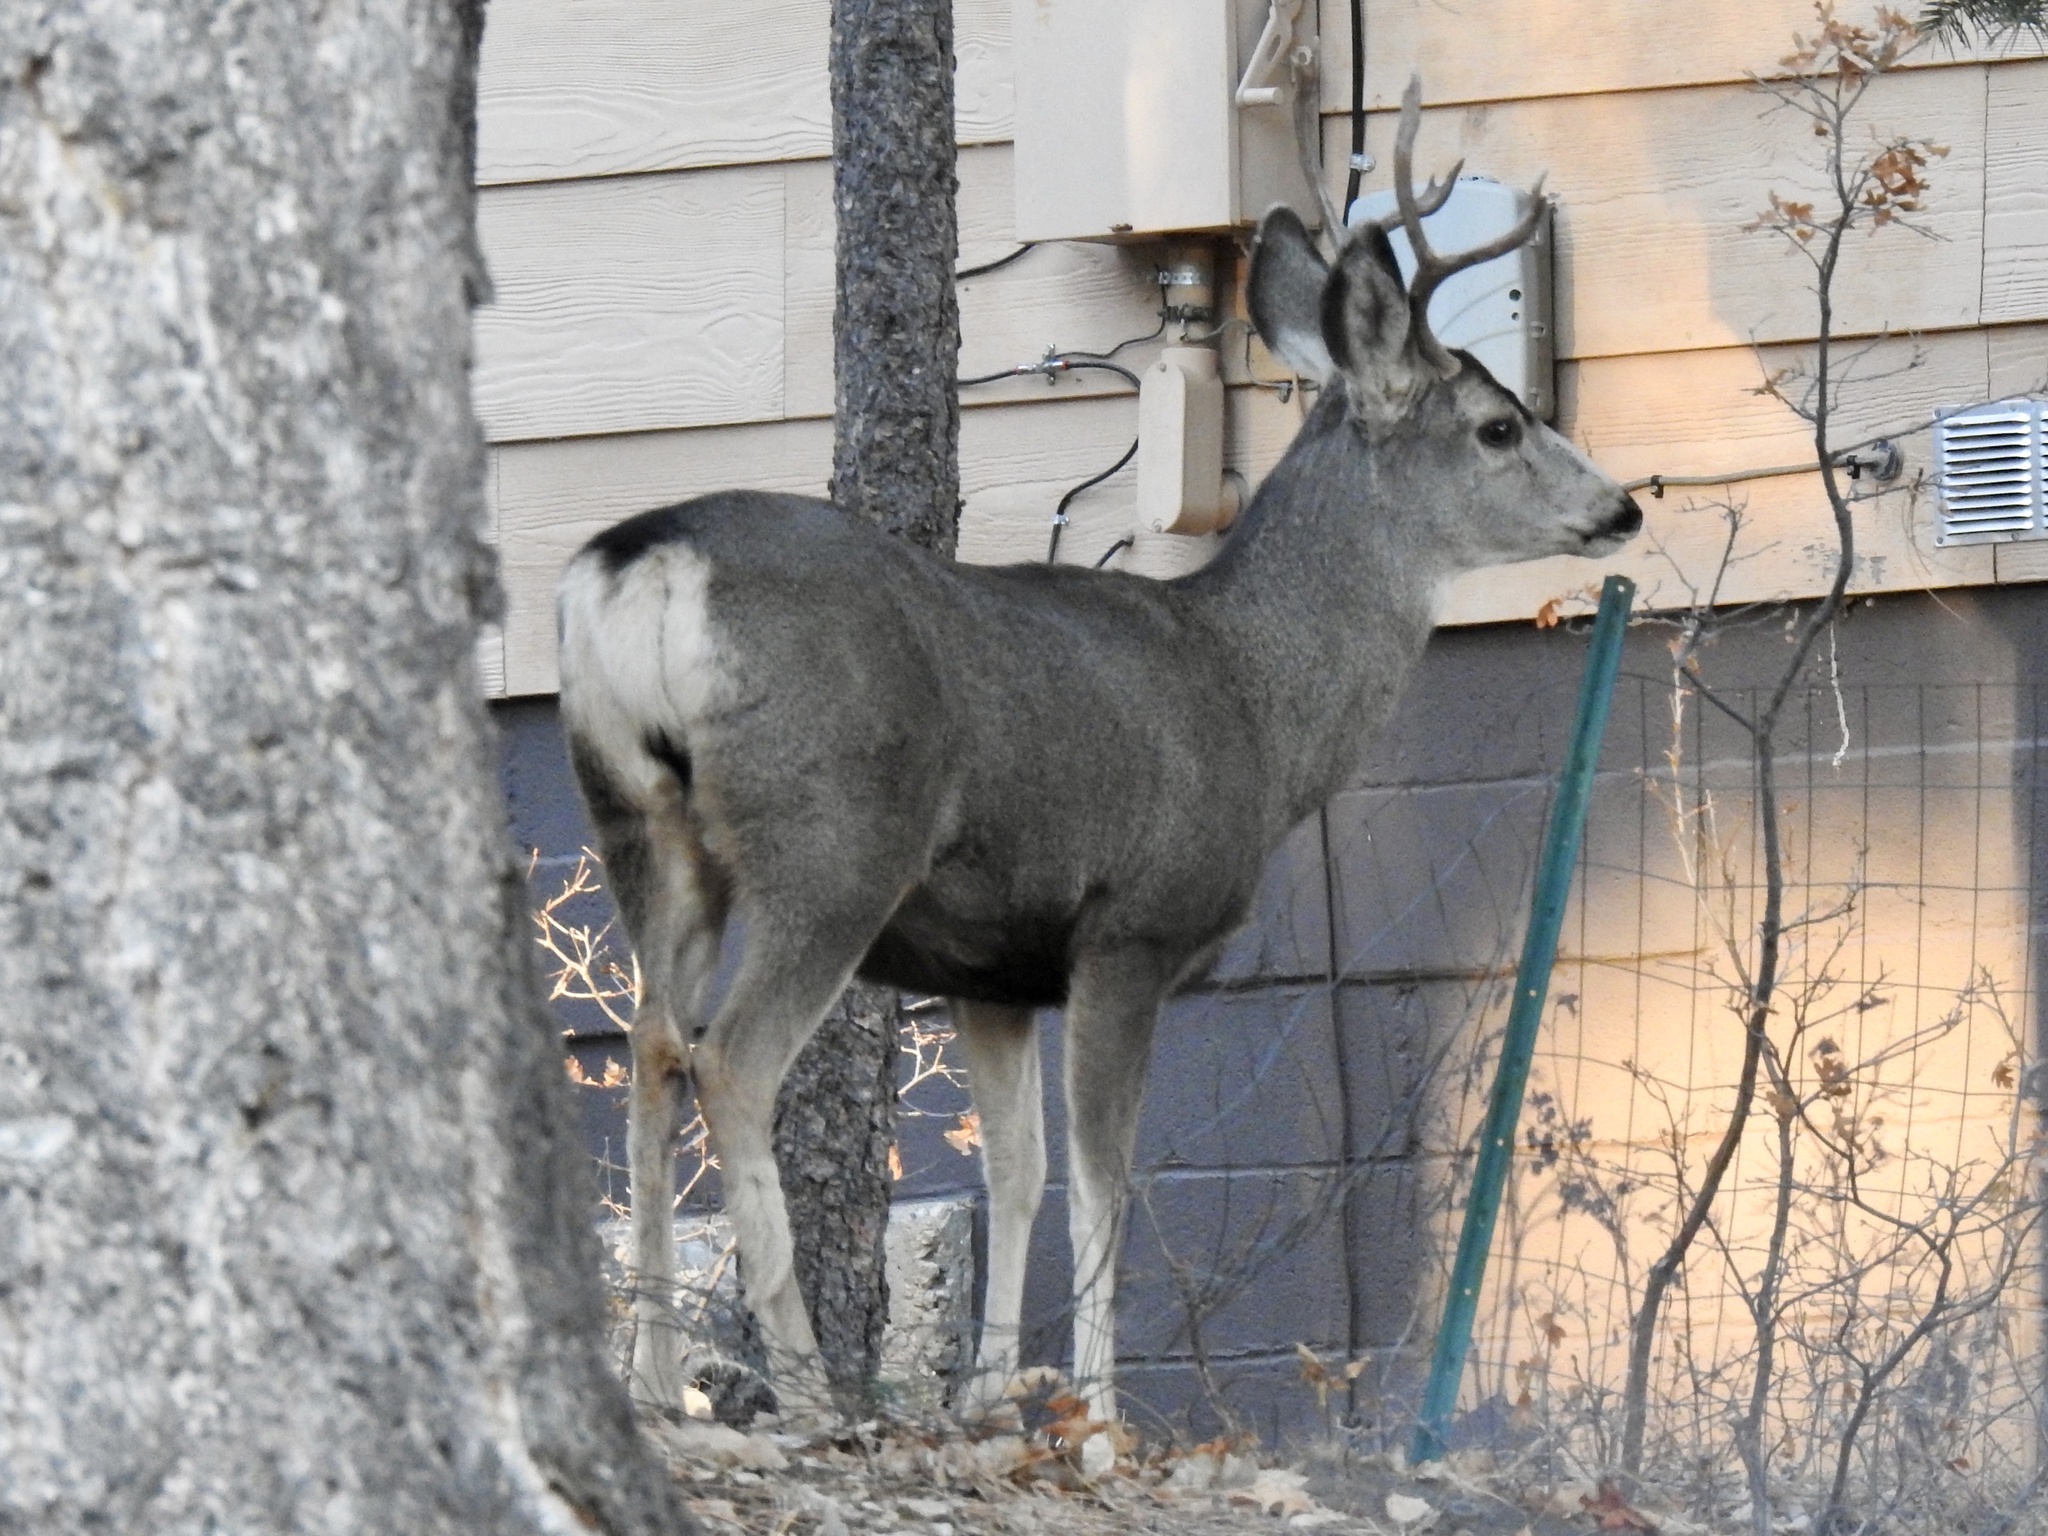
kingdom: Animalia
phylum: Chordata
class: Mammalia
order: Artiodactyla
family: Cervidae
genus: Odocoileus
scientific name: Odocoileus hemionus
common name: Mule deer
